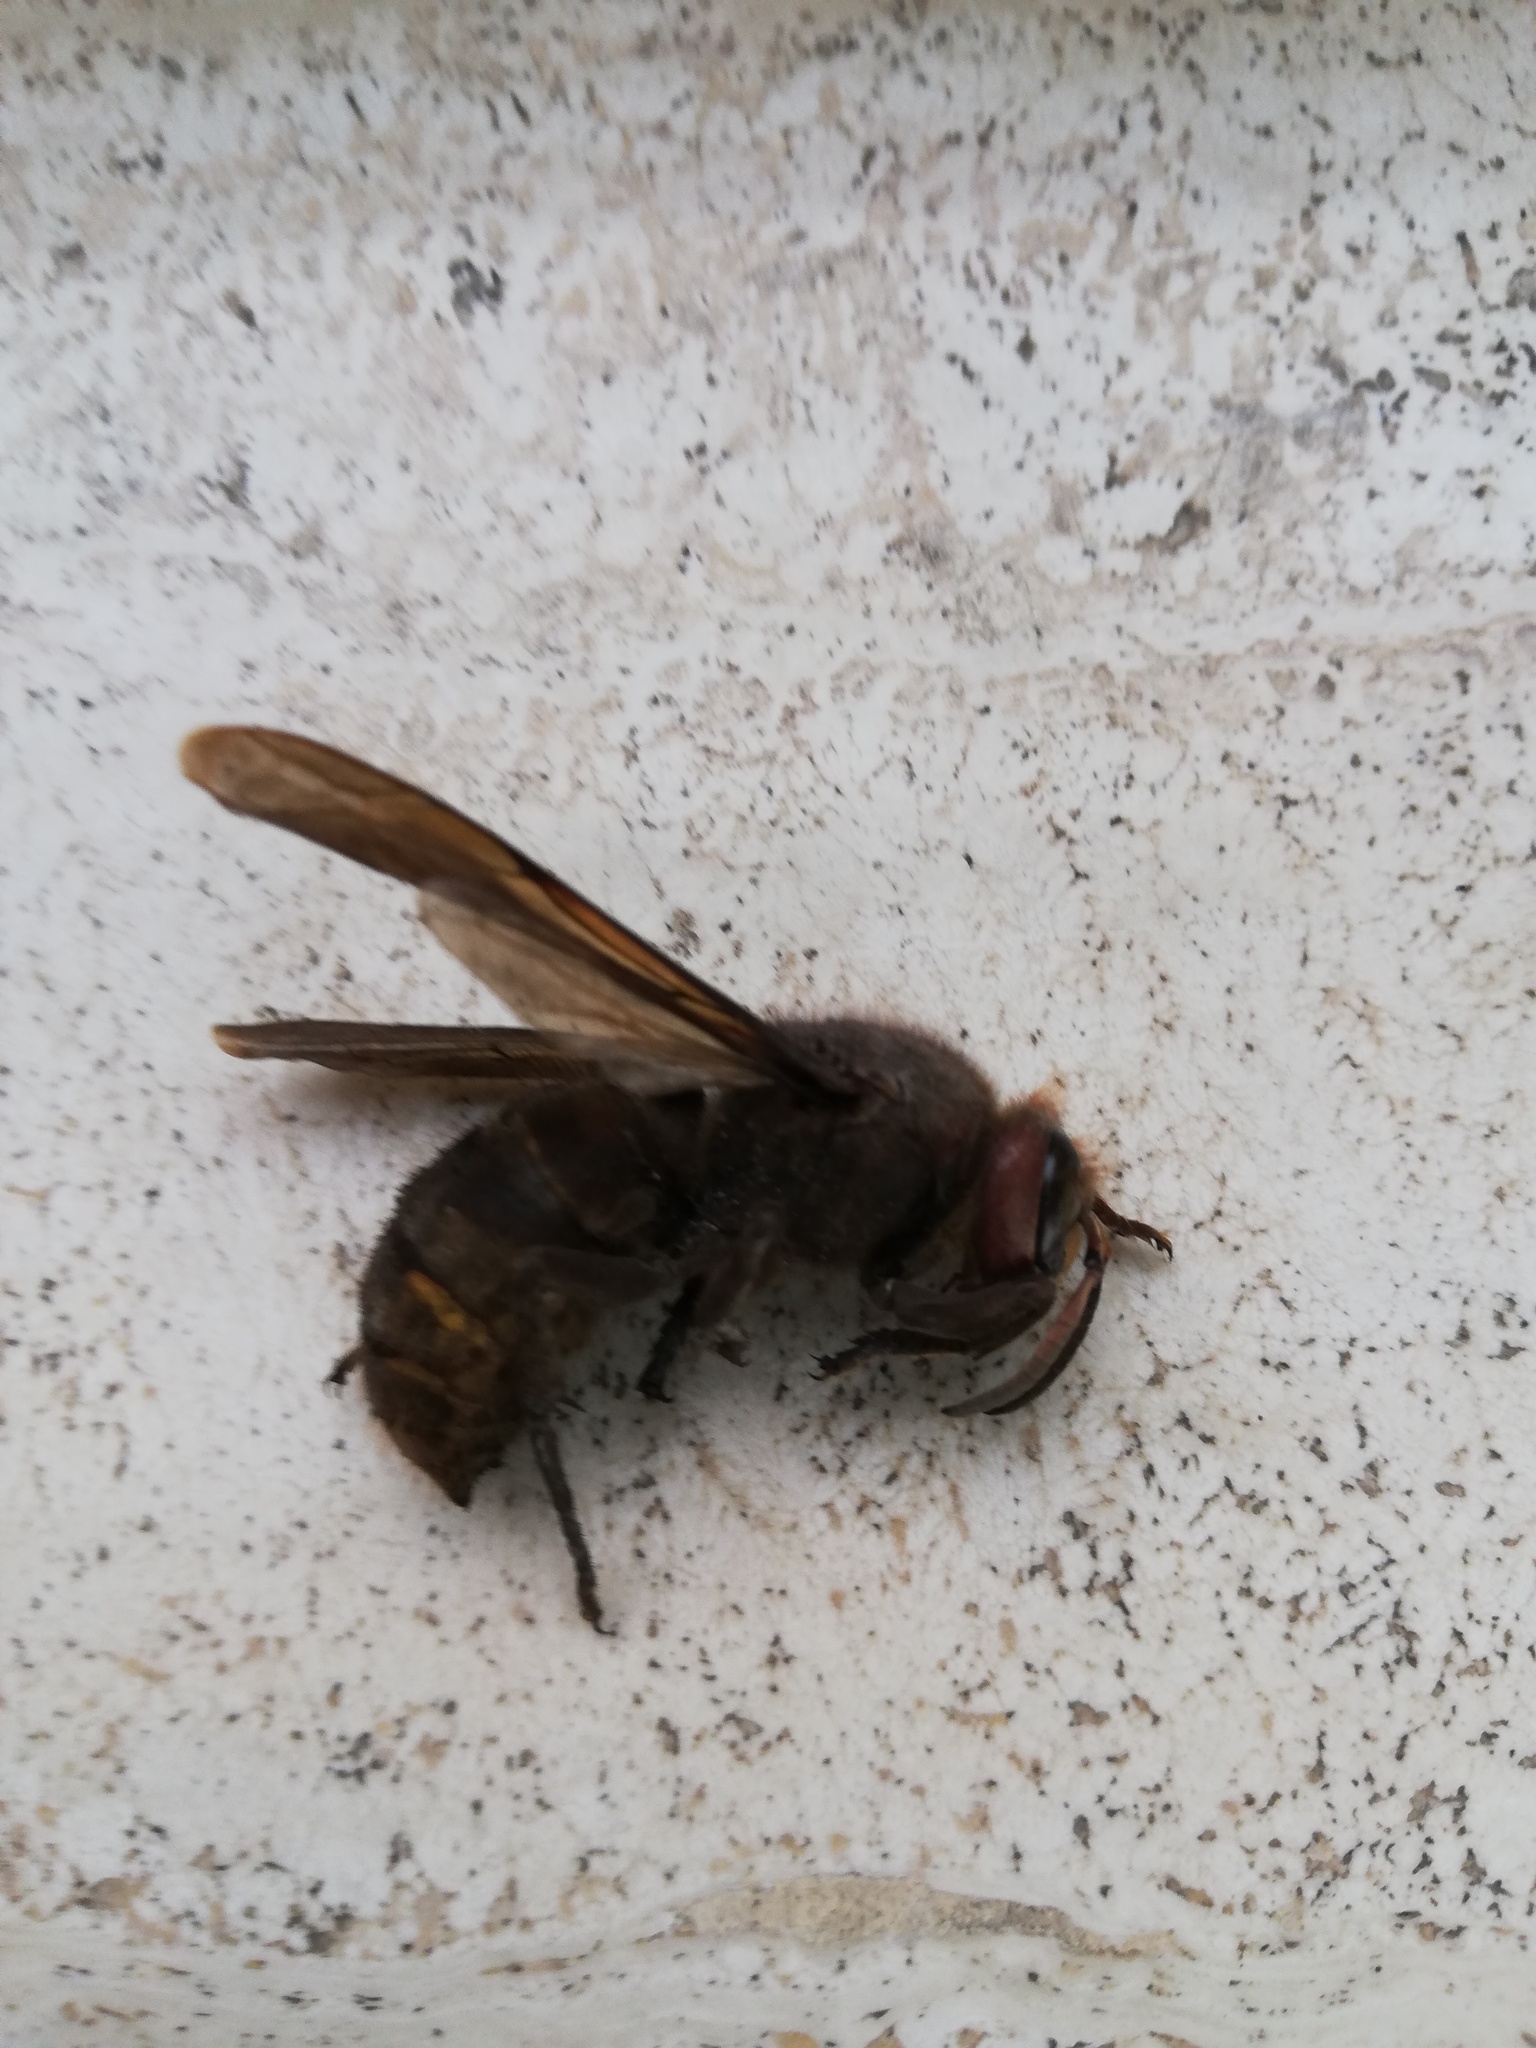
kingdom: Animalia
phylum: Arthropoda
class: Insecta
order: Hymenoptera
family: Vespidae
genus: Vespa
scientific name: Vespa crabro
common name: Hornet
